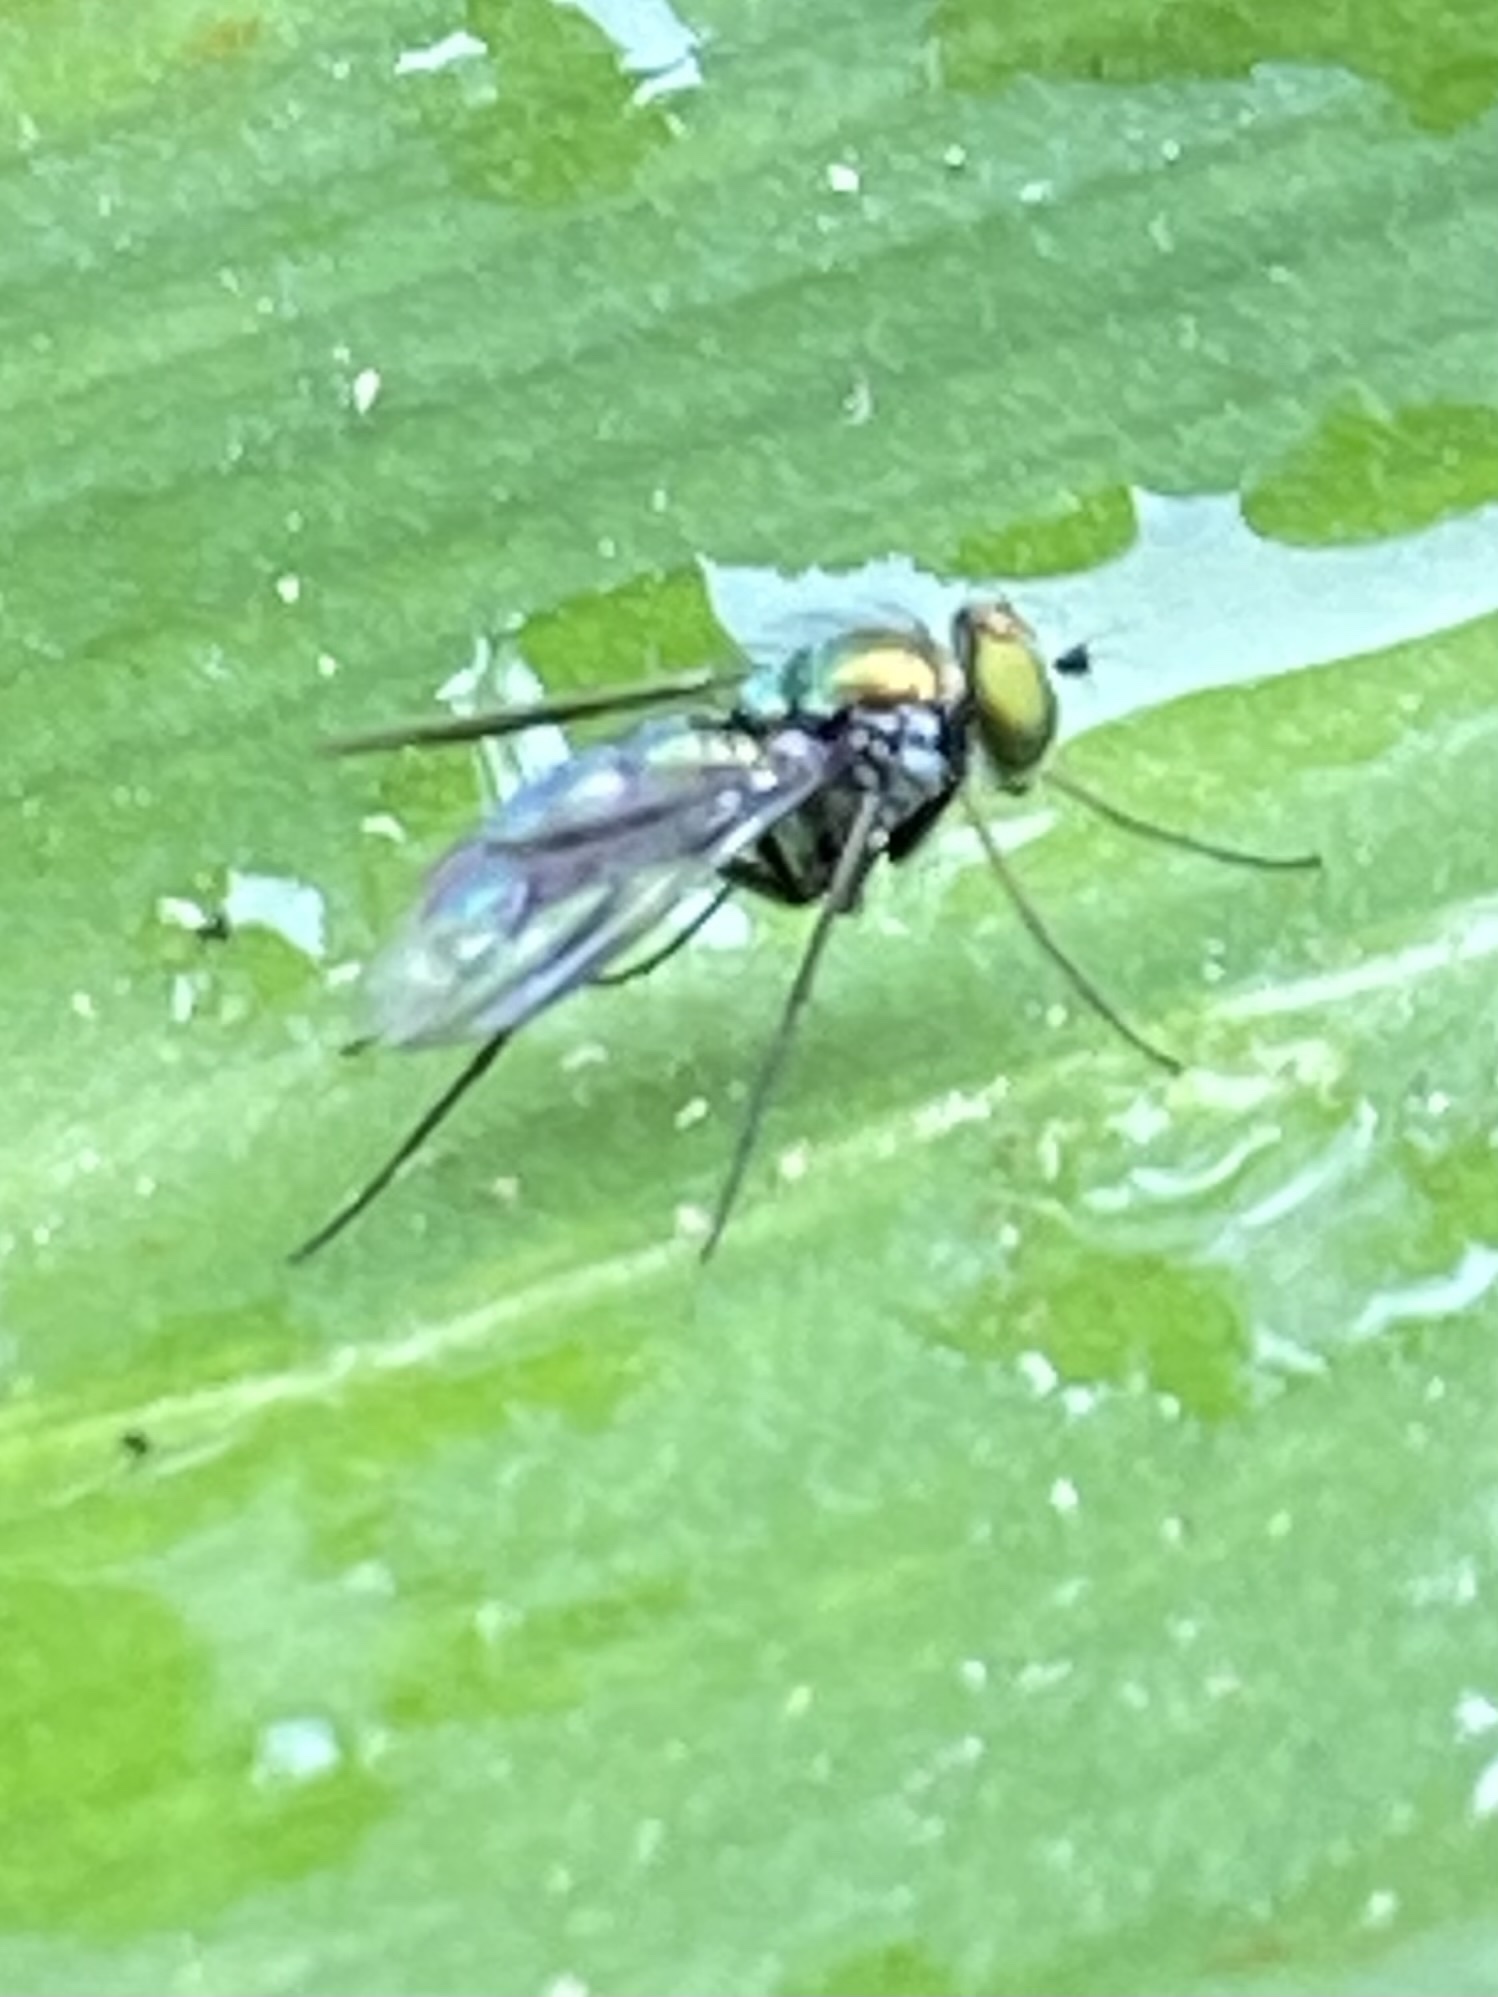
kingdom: Animalia
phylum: Arthropoda
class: Insecta
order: Diptera
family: Dolichopodidae
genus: Condylostylus
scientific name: Condylostylus longicornis
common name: Long-legged fly
